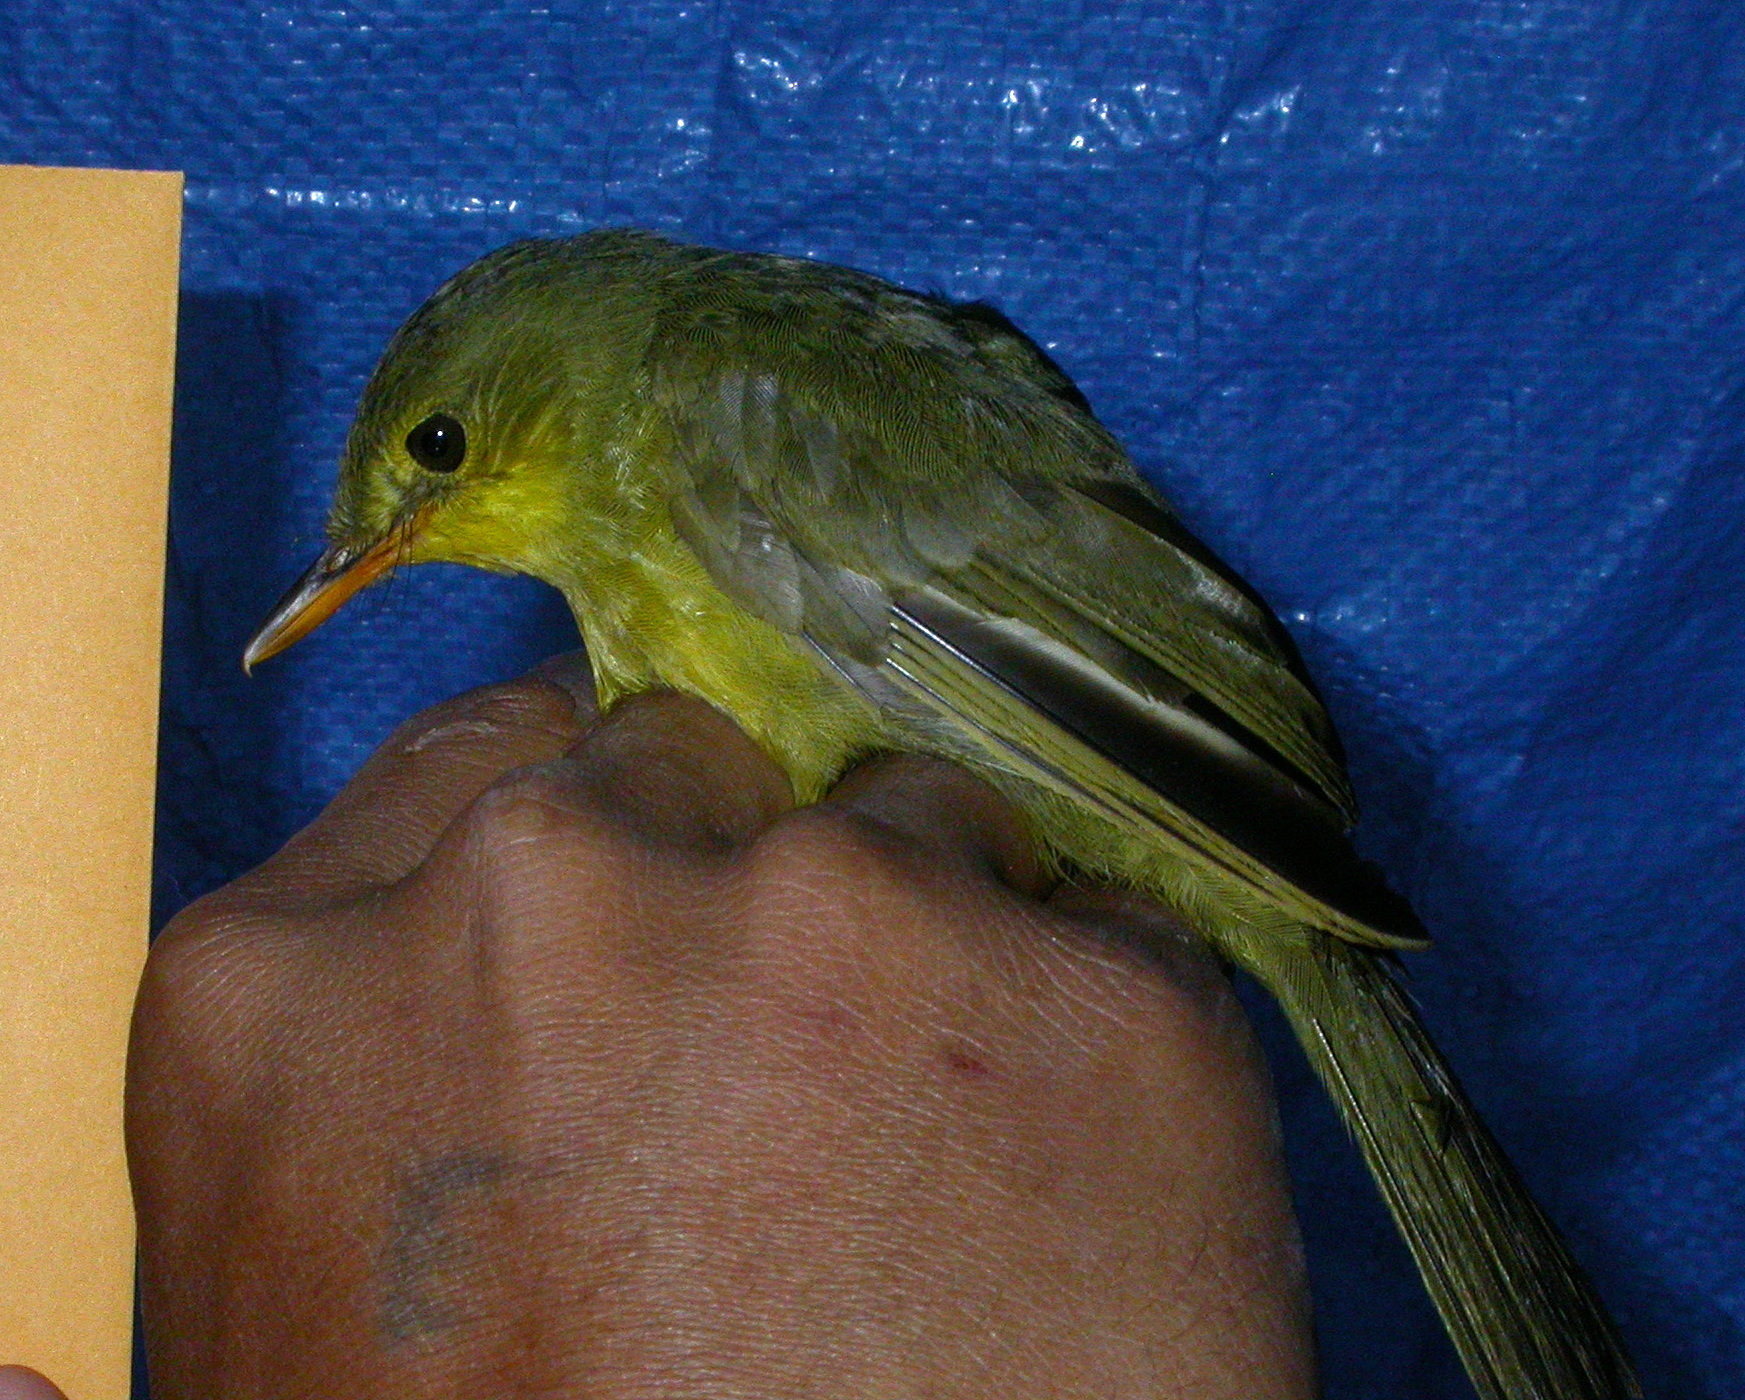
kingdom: Animalia
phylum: Chordata
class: Aves
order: Passeriformes
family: Bernieridae
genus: Xanthomixis
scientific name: Xanthomixis zosterops
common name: Spectacled tetraka
